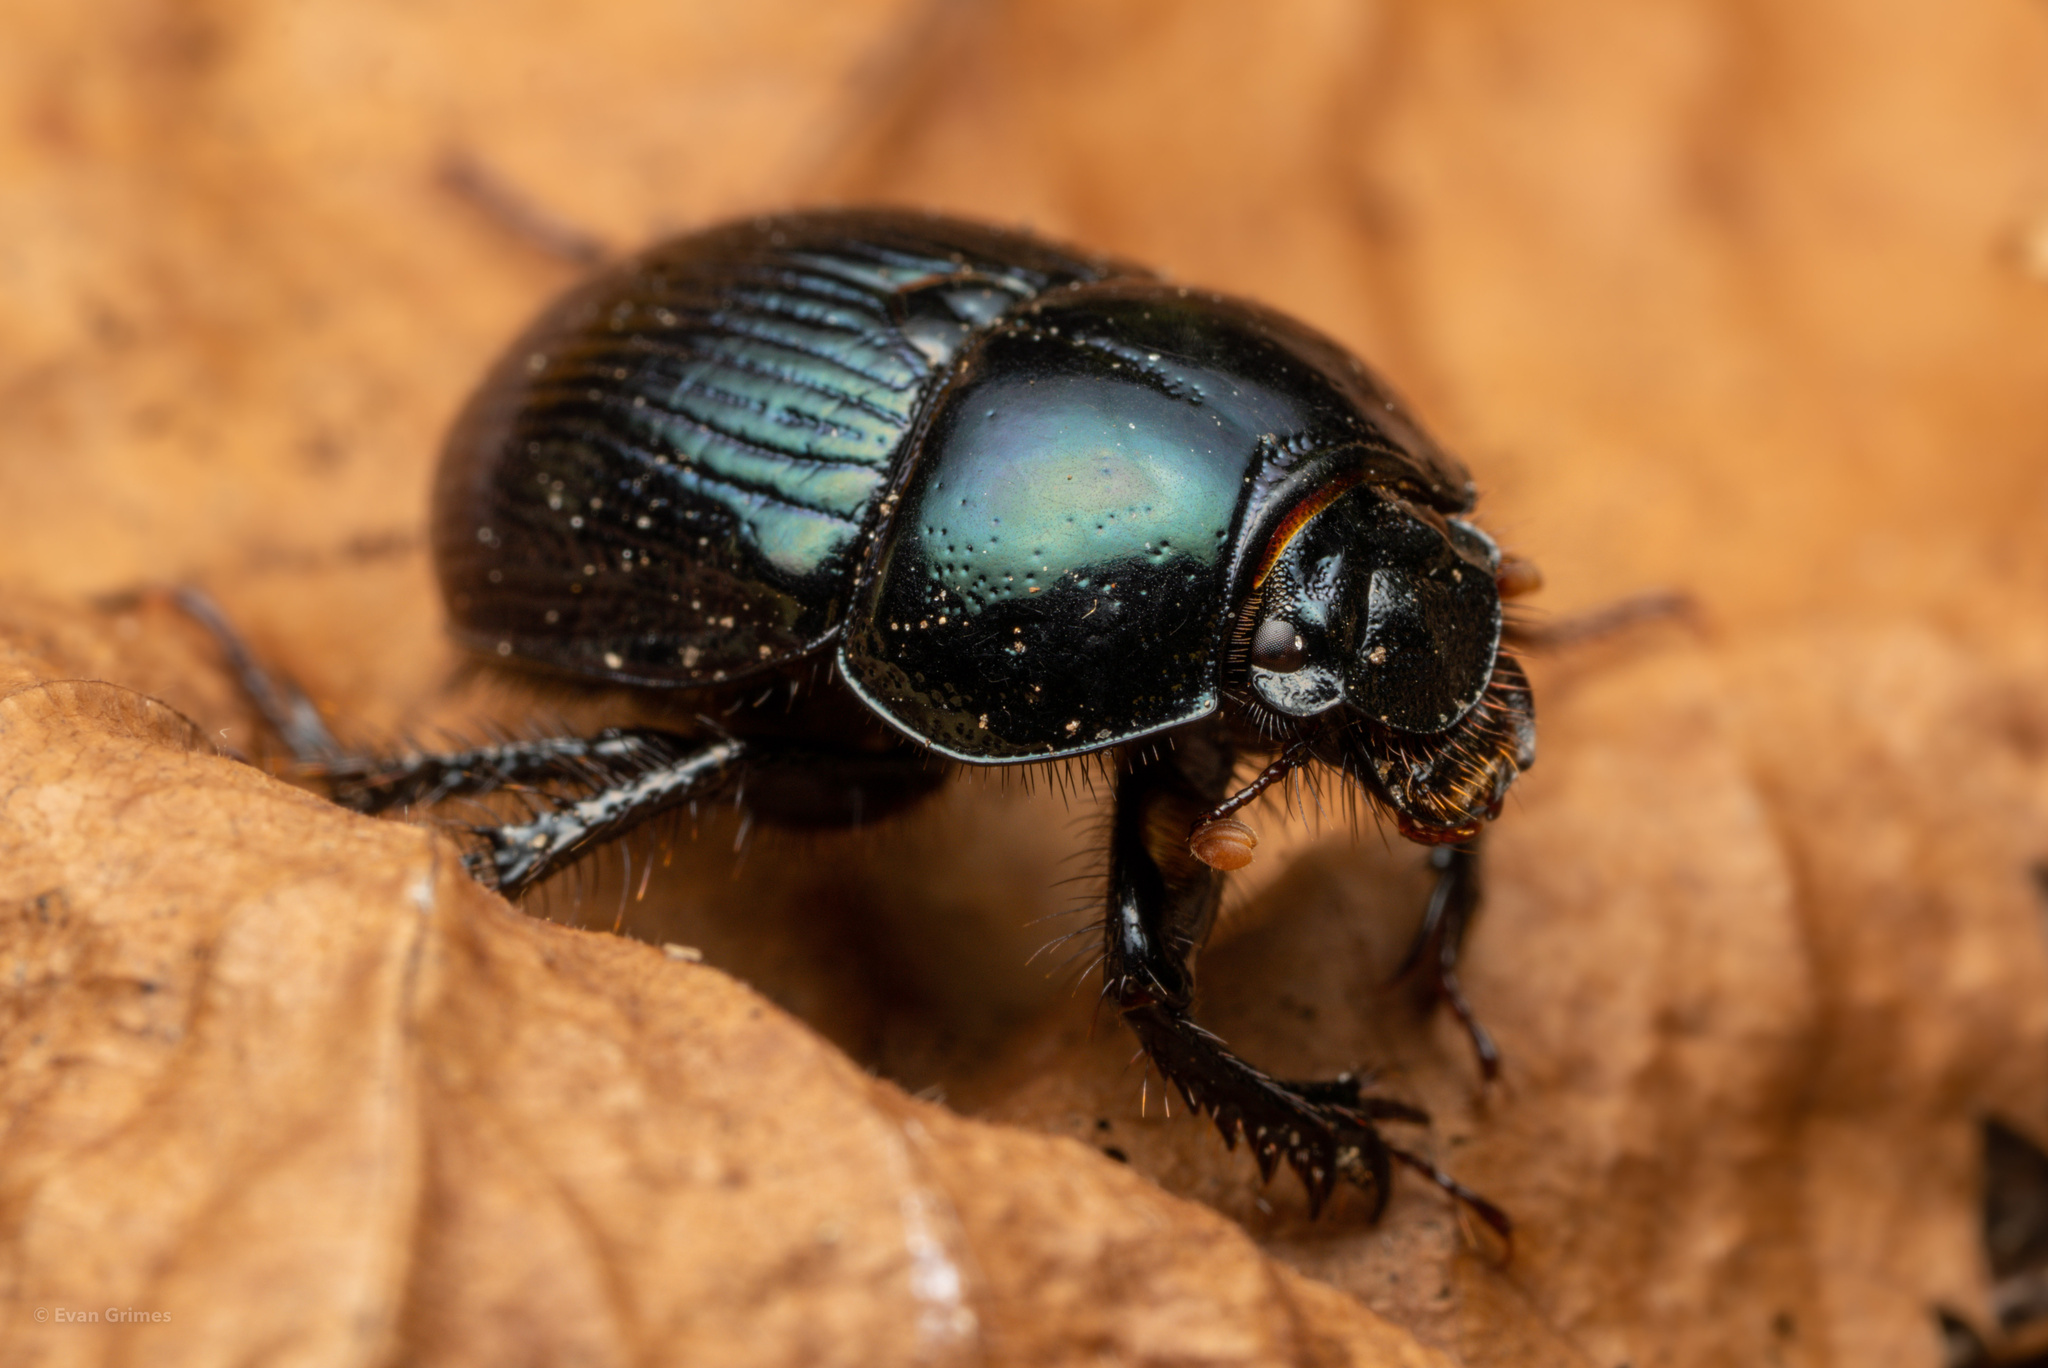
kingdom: Animalia
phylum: Arthropoda
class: Insecta
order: Coleoptera
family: Geotrupidae
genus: Anoplotrupes
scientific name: Anoplotrupes balyi
